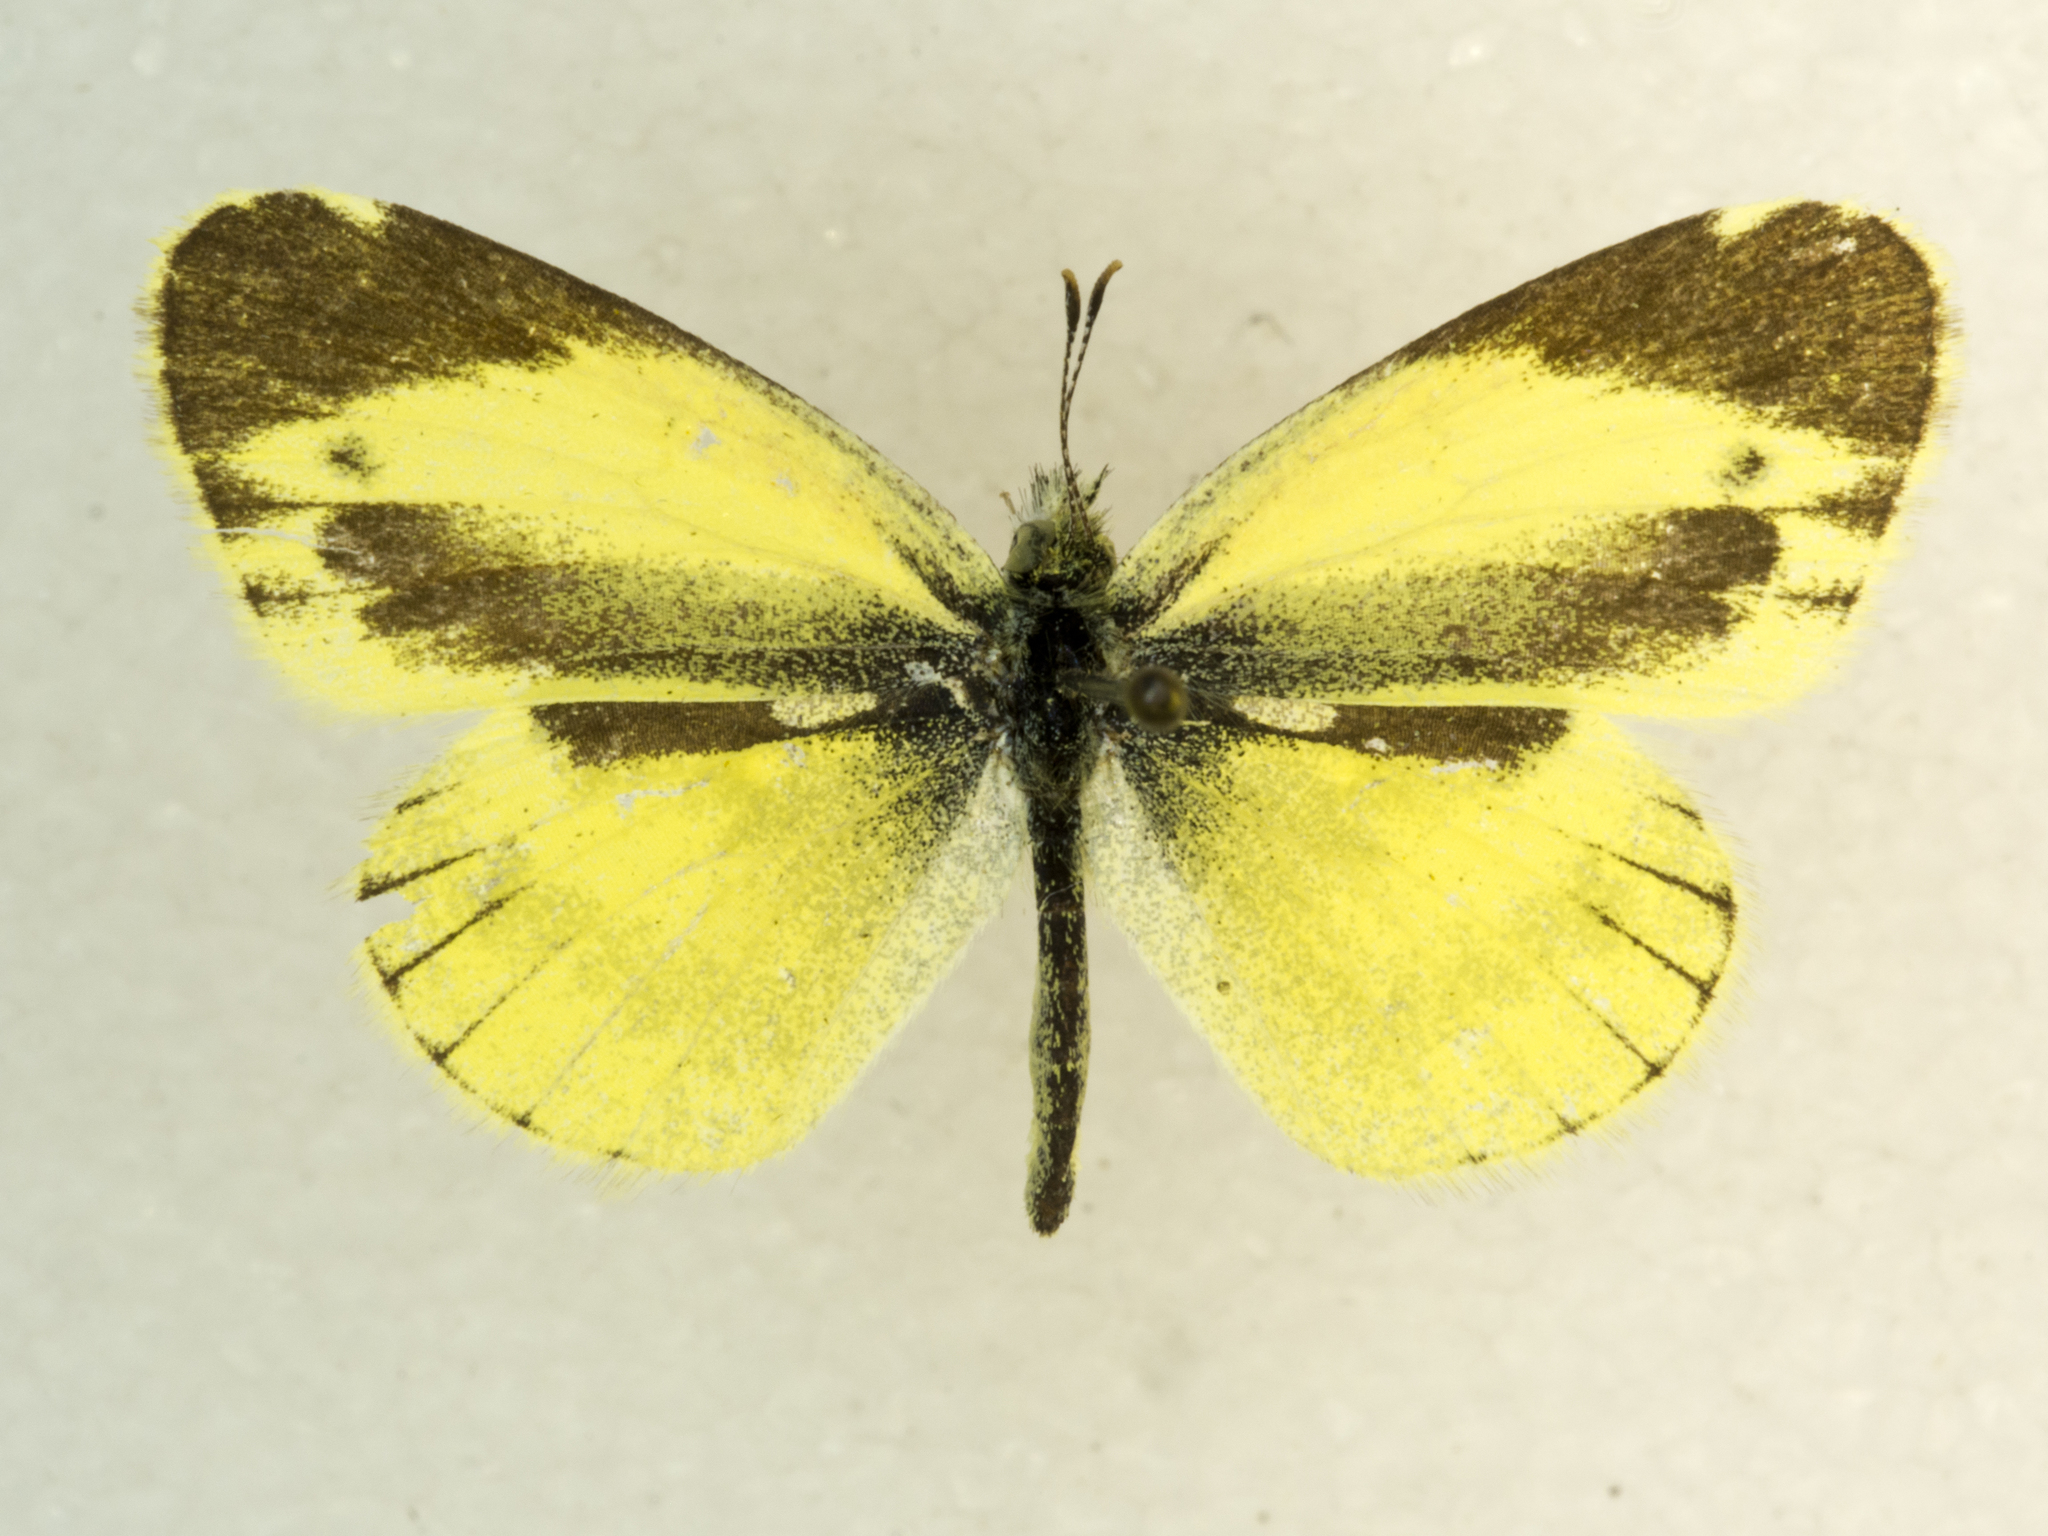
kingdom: Animalia
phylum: Arthropoda
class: Insecta
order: Lepidoptera
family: Pieridae
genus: Nathalis
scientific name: Nathalis iole
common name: Dainty sulphur
